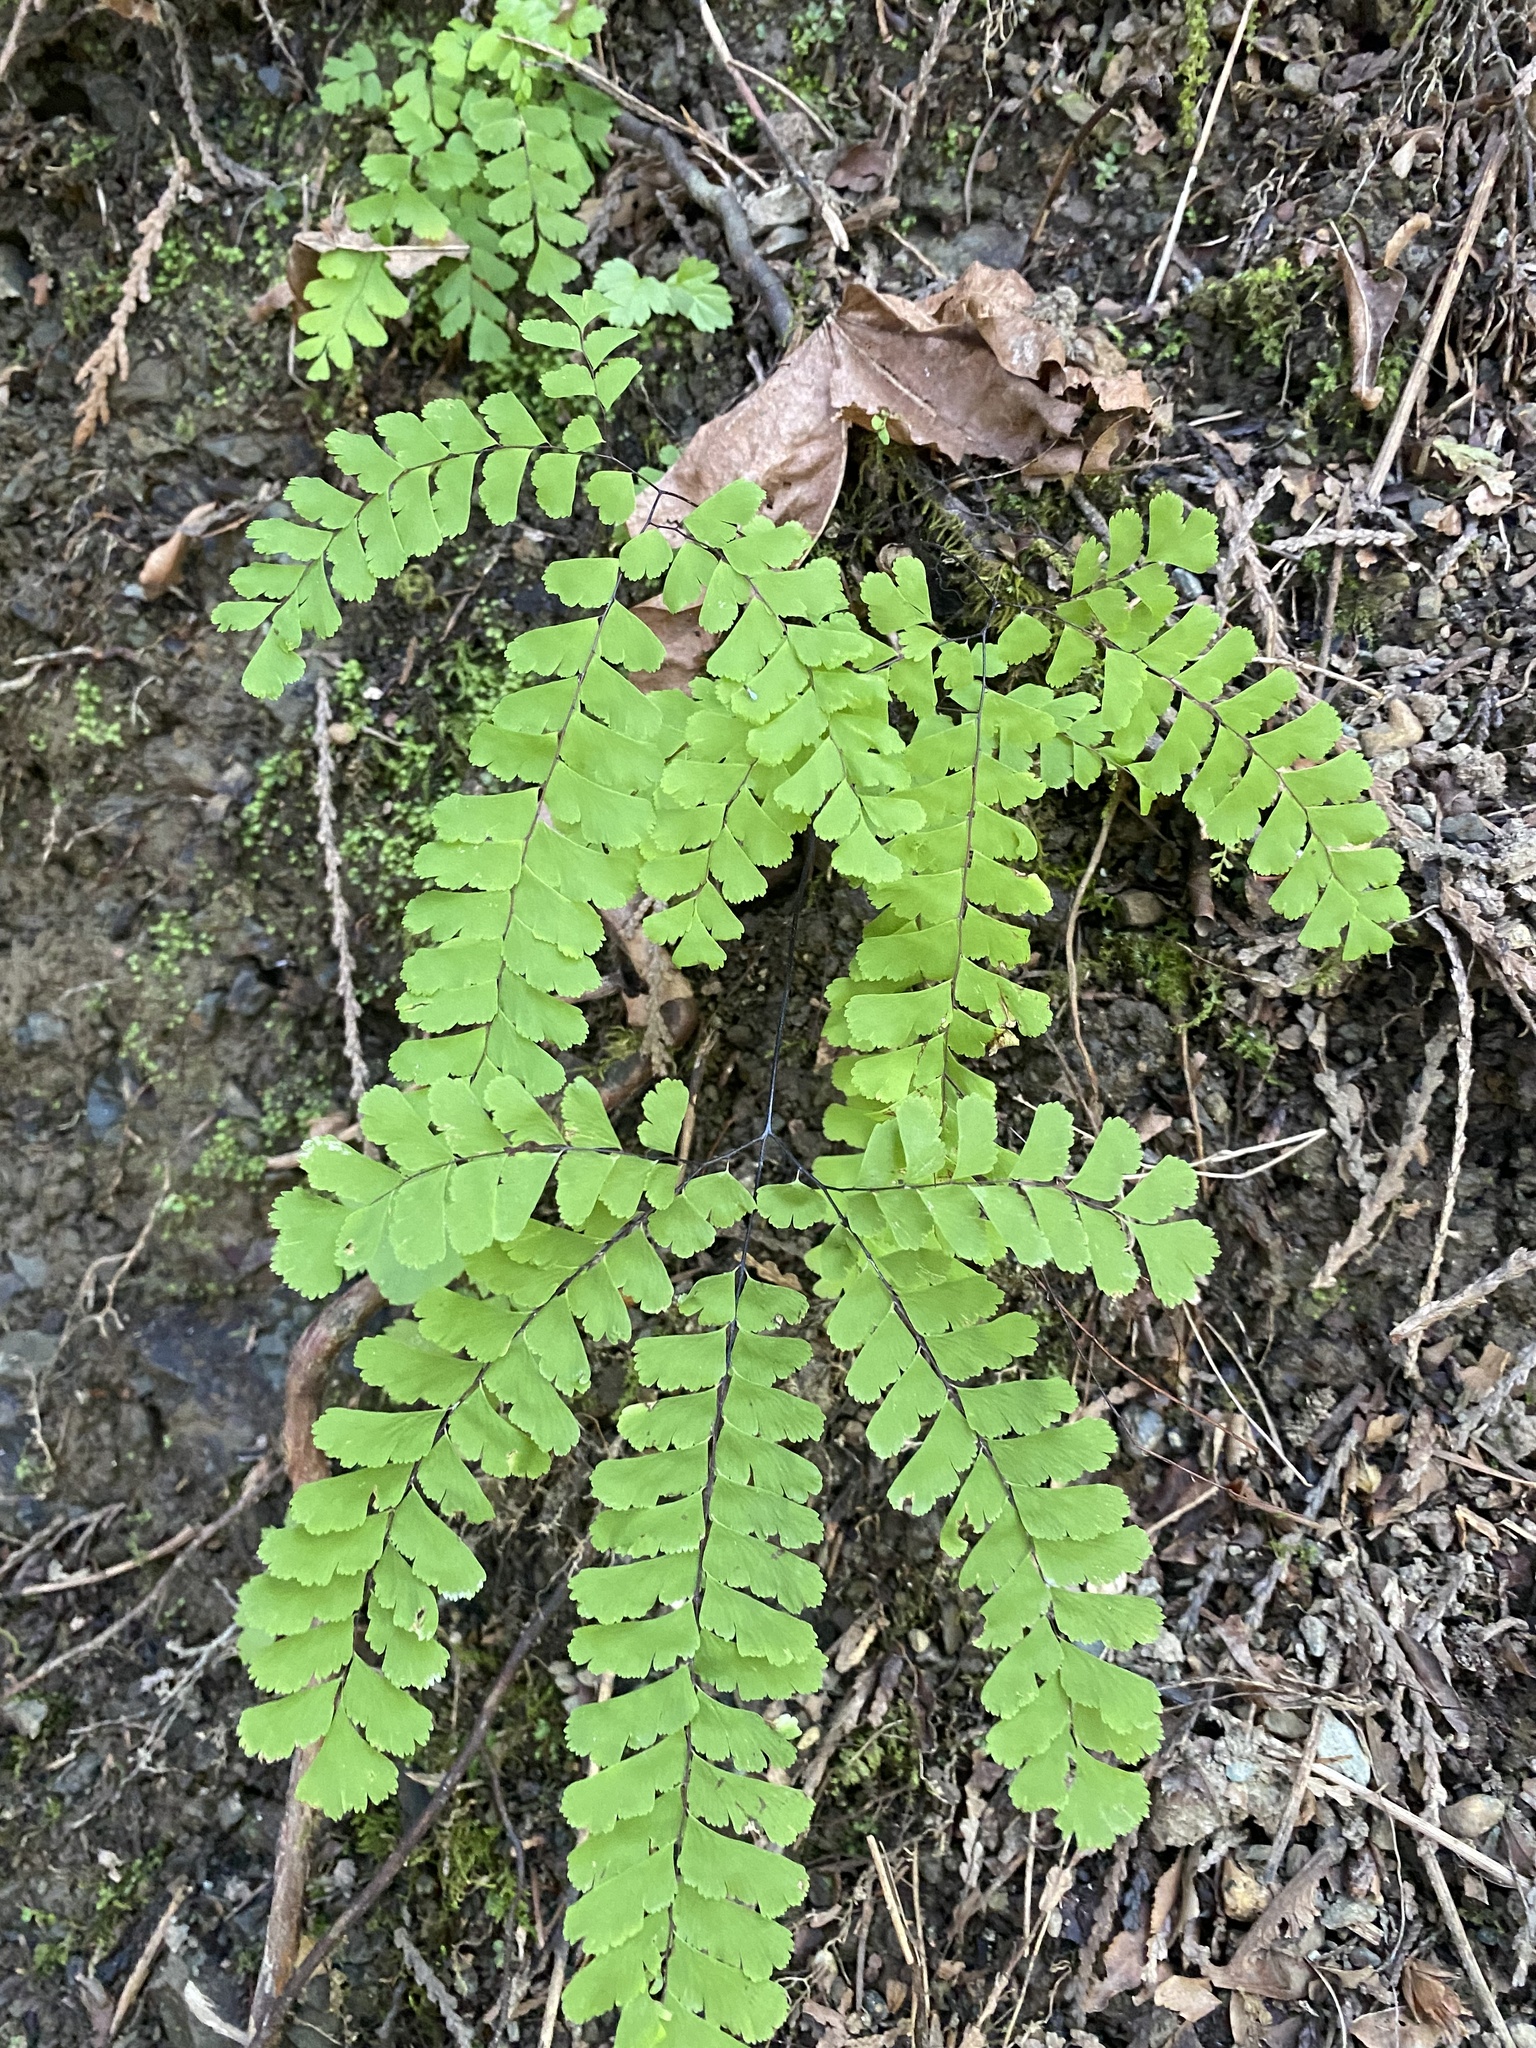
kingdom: Plantae
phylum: Tracheophyta
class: Polypodiopsida
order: Polypodiales
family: Pteridaceae
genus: Adiantum
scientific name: Adiantum aleuticum
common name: Aleutian maidenhair fern
